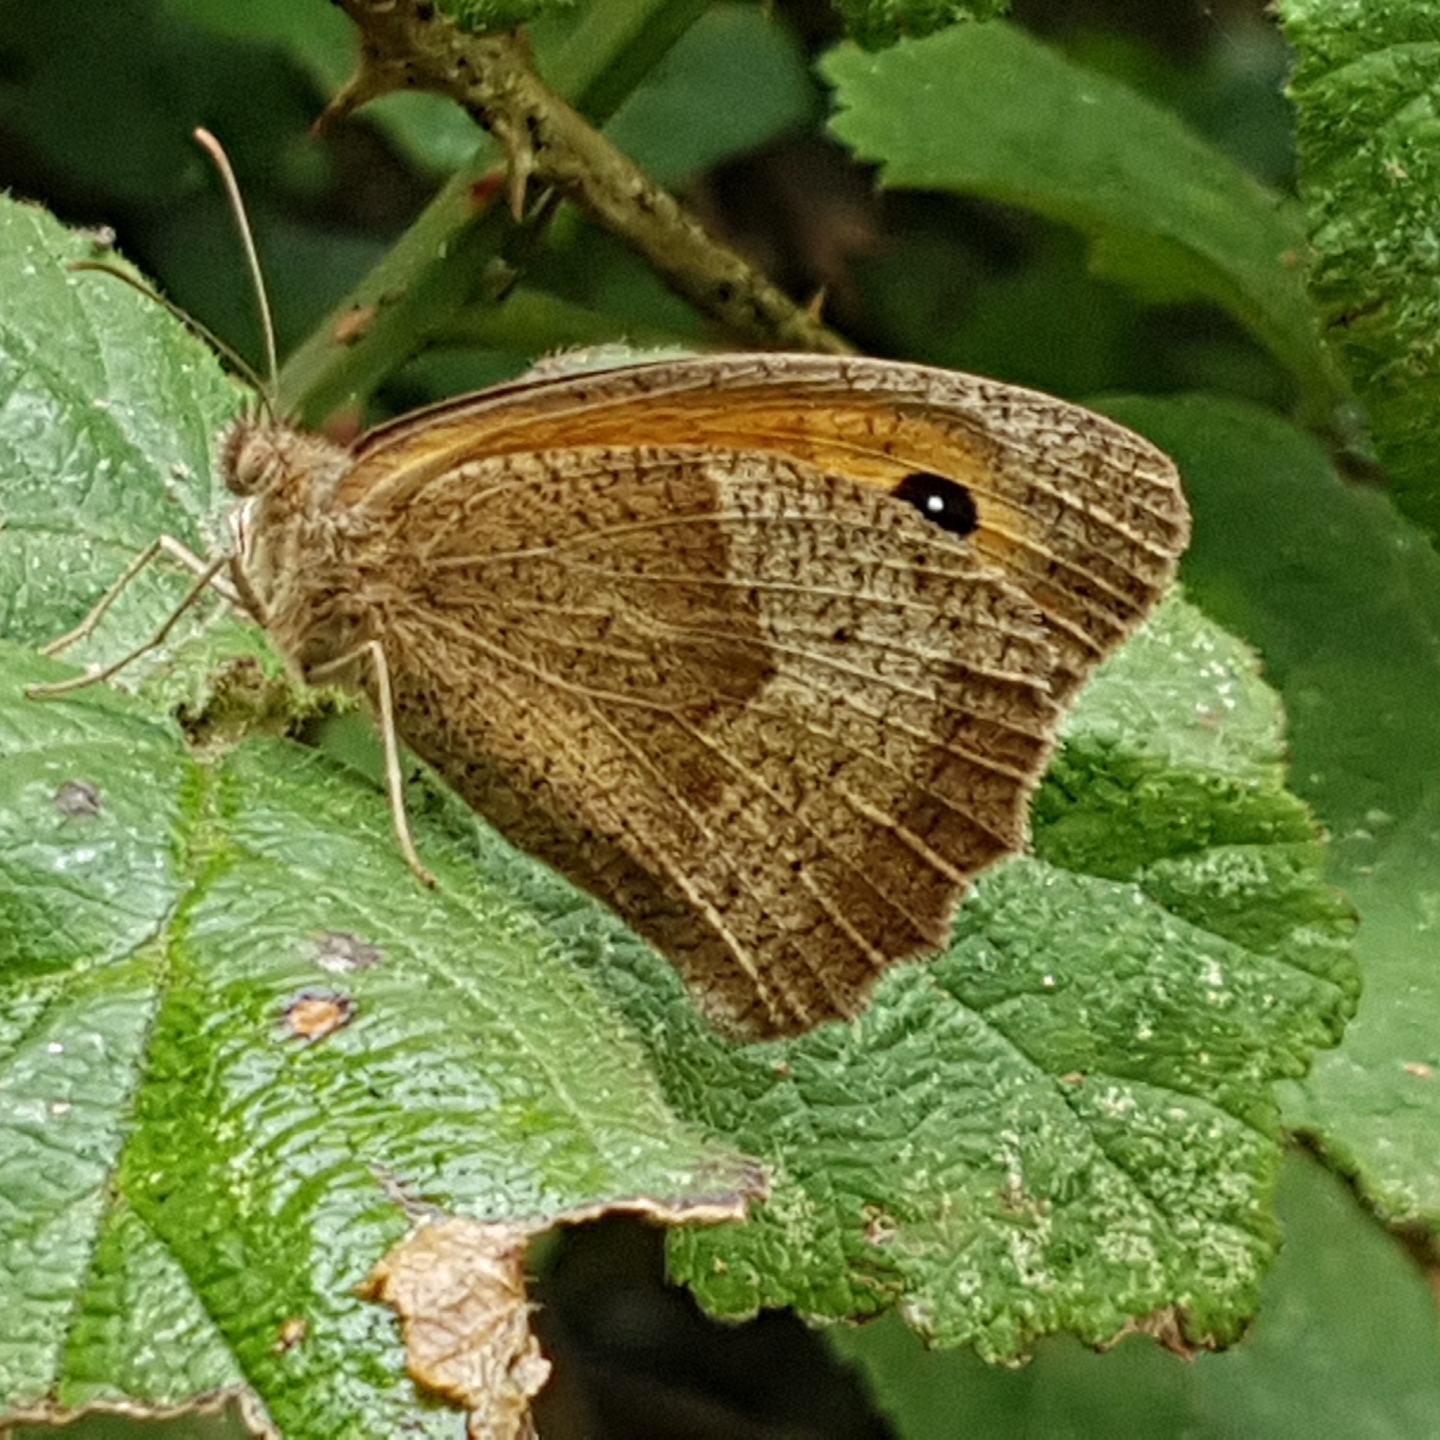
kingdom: Animalia
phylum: Arthropoda
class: Insecta
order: Lepidoptera
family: Nymphalidae
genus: Maniola
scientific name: Maniola jurtina
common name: Meadow brown
